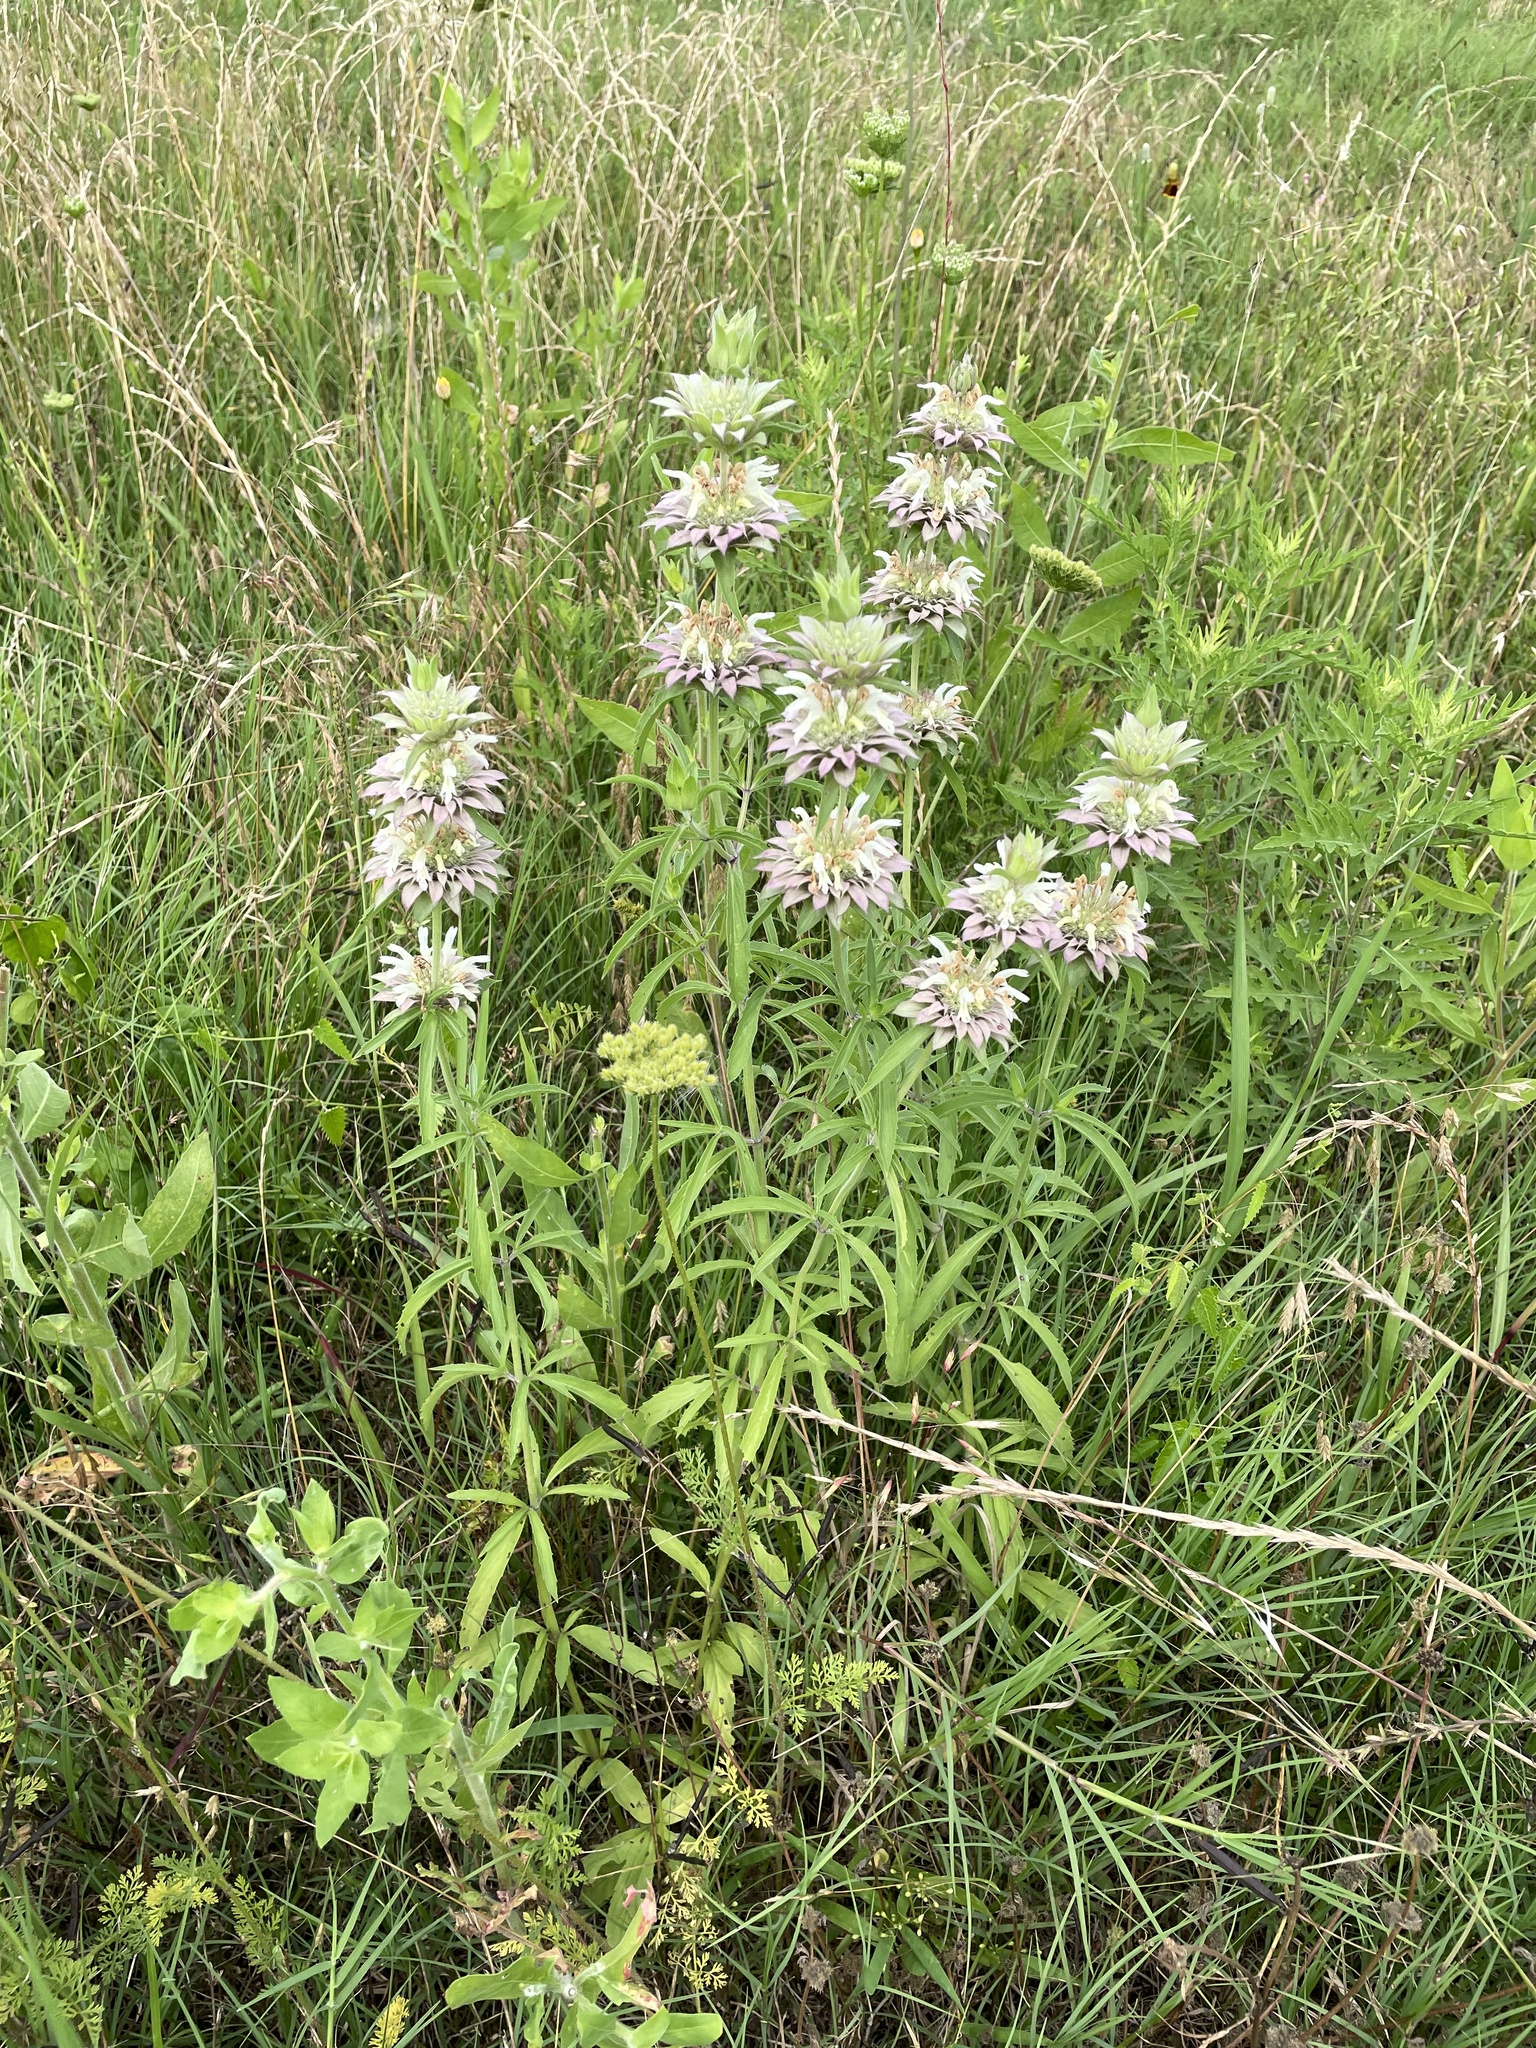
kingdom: Plantae
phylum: Tracheophyta
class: Magnoliopsida
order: Lamiales
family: Lamiaceae
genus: Monarda
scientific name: Monarda citriodora
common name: Lemon beebalm
